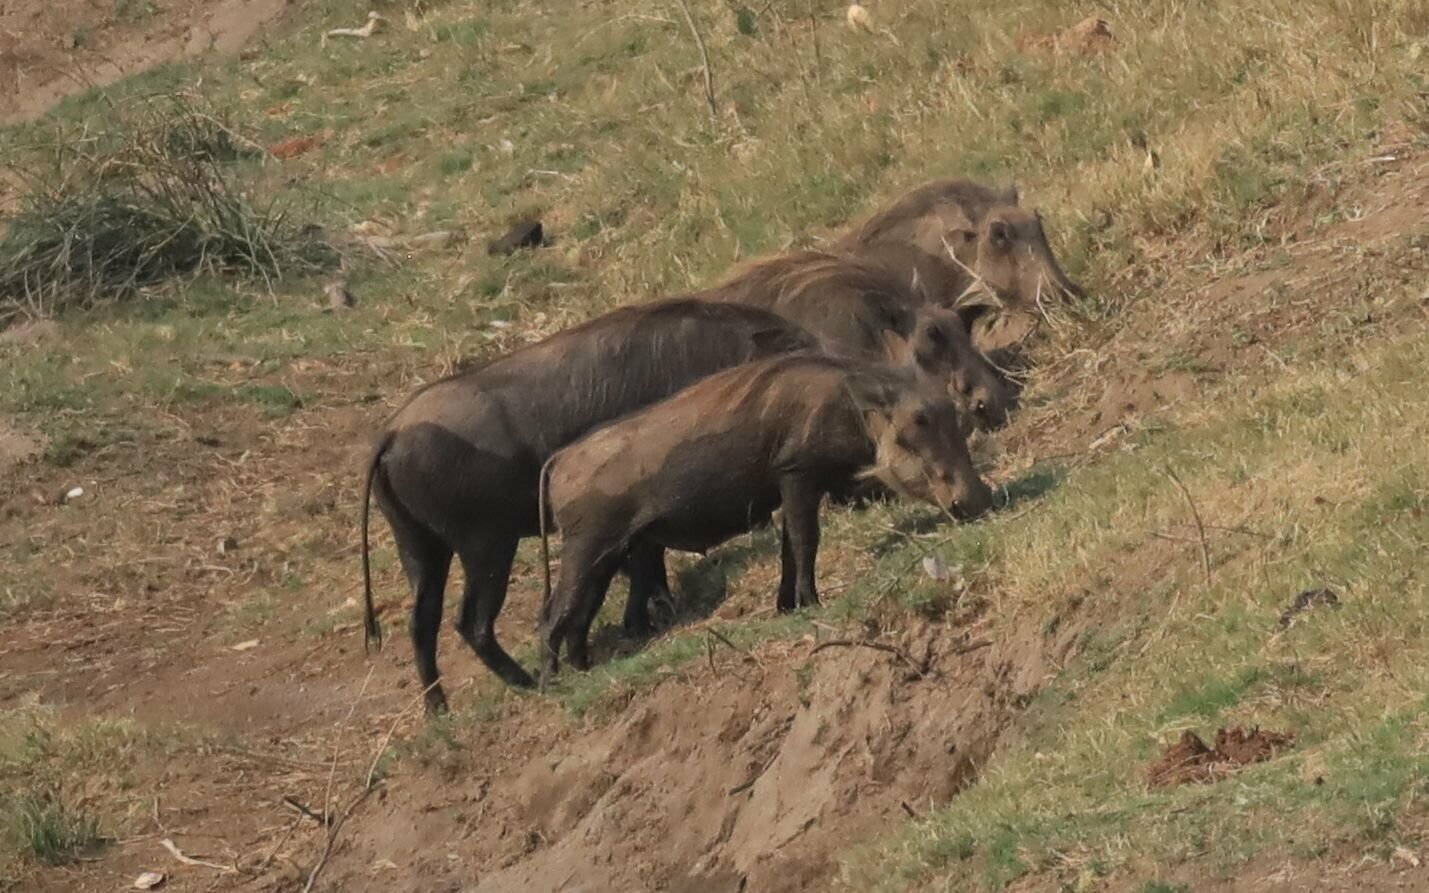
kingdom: Animalia
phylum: Chordata
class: Mammalia
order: Artiodactyla
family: Suidae
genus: Phacochoerus
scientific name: Phacochoerus africanus
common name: Common warthog
